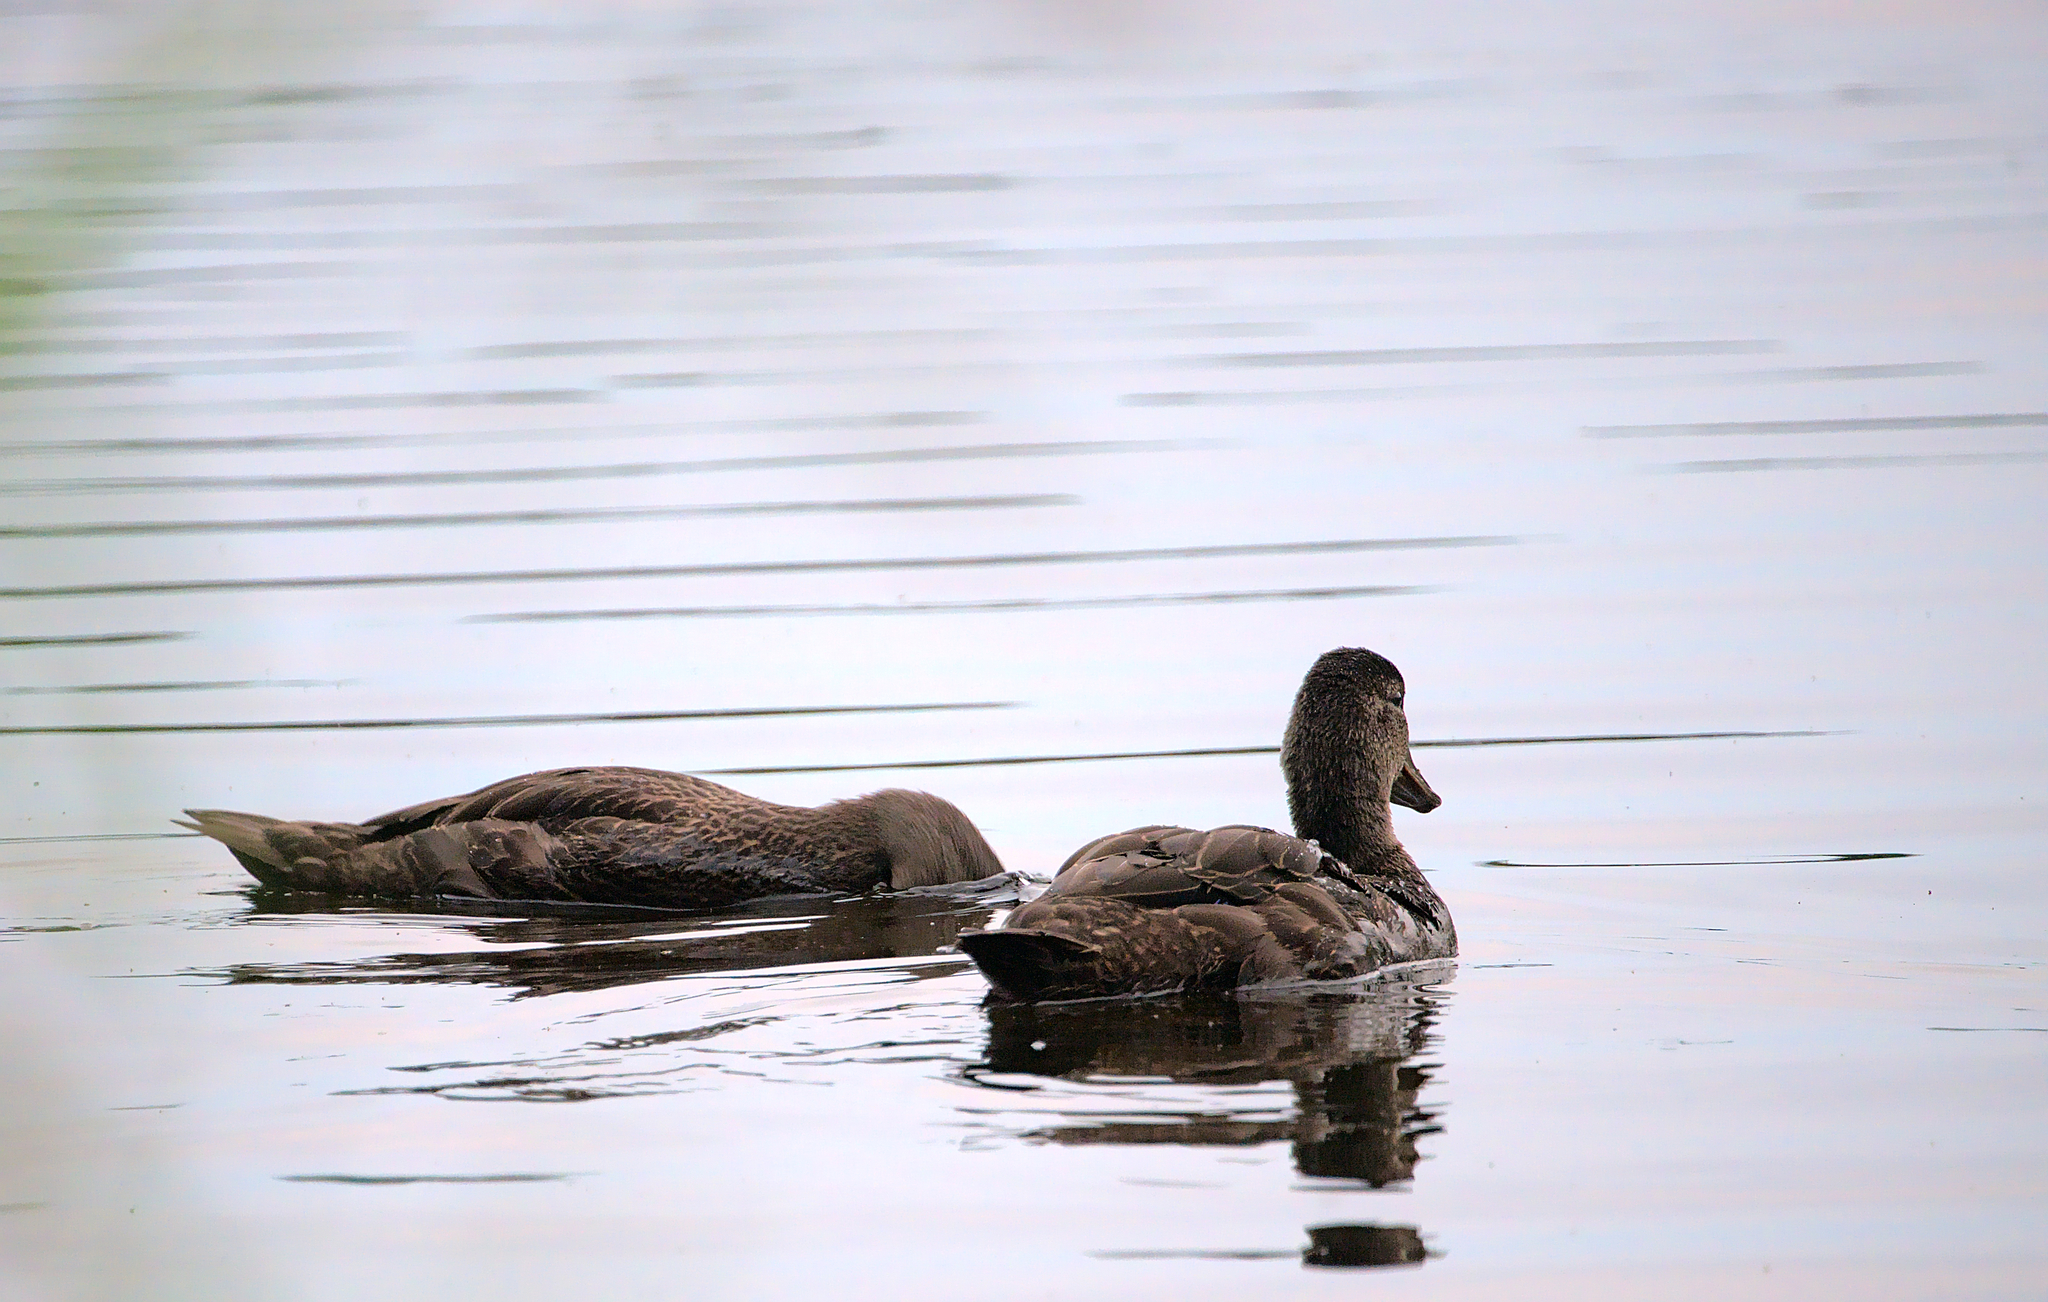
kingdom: Animalia
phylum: Chordata
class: Aves
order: Anseriformes
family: Anatidae
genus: Anas
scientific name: Anas rubripes
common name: American black duck
